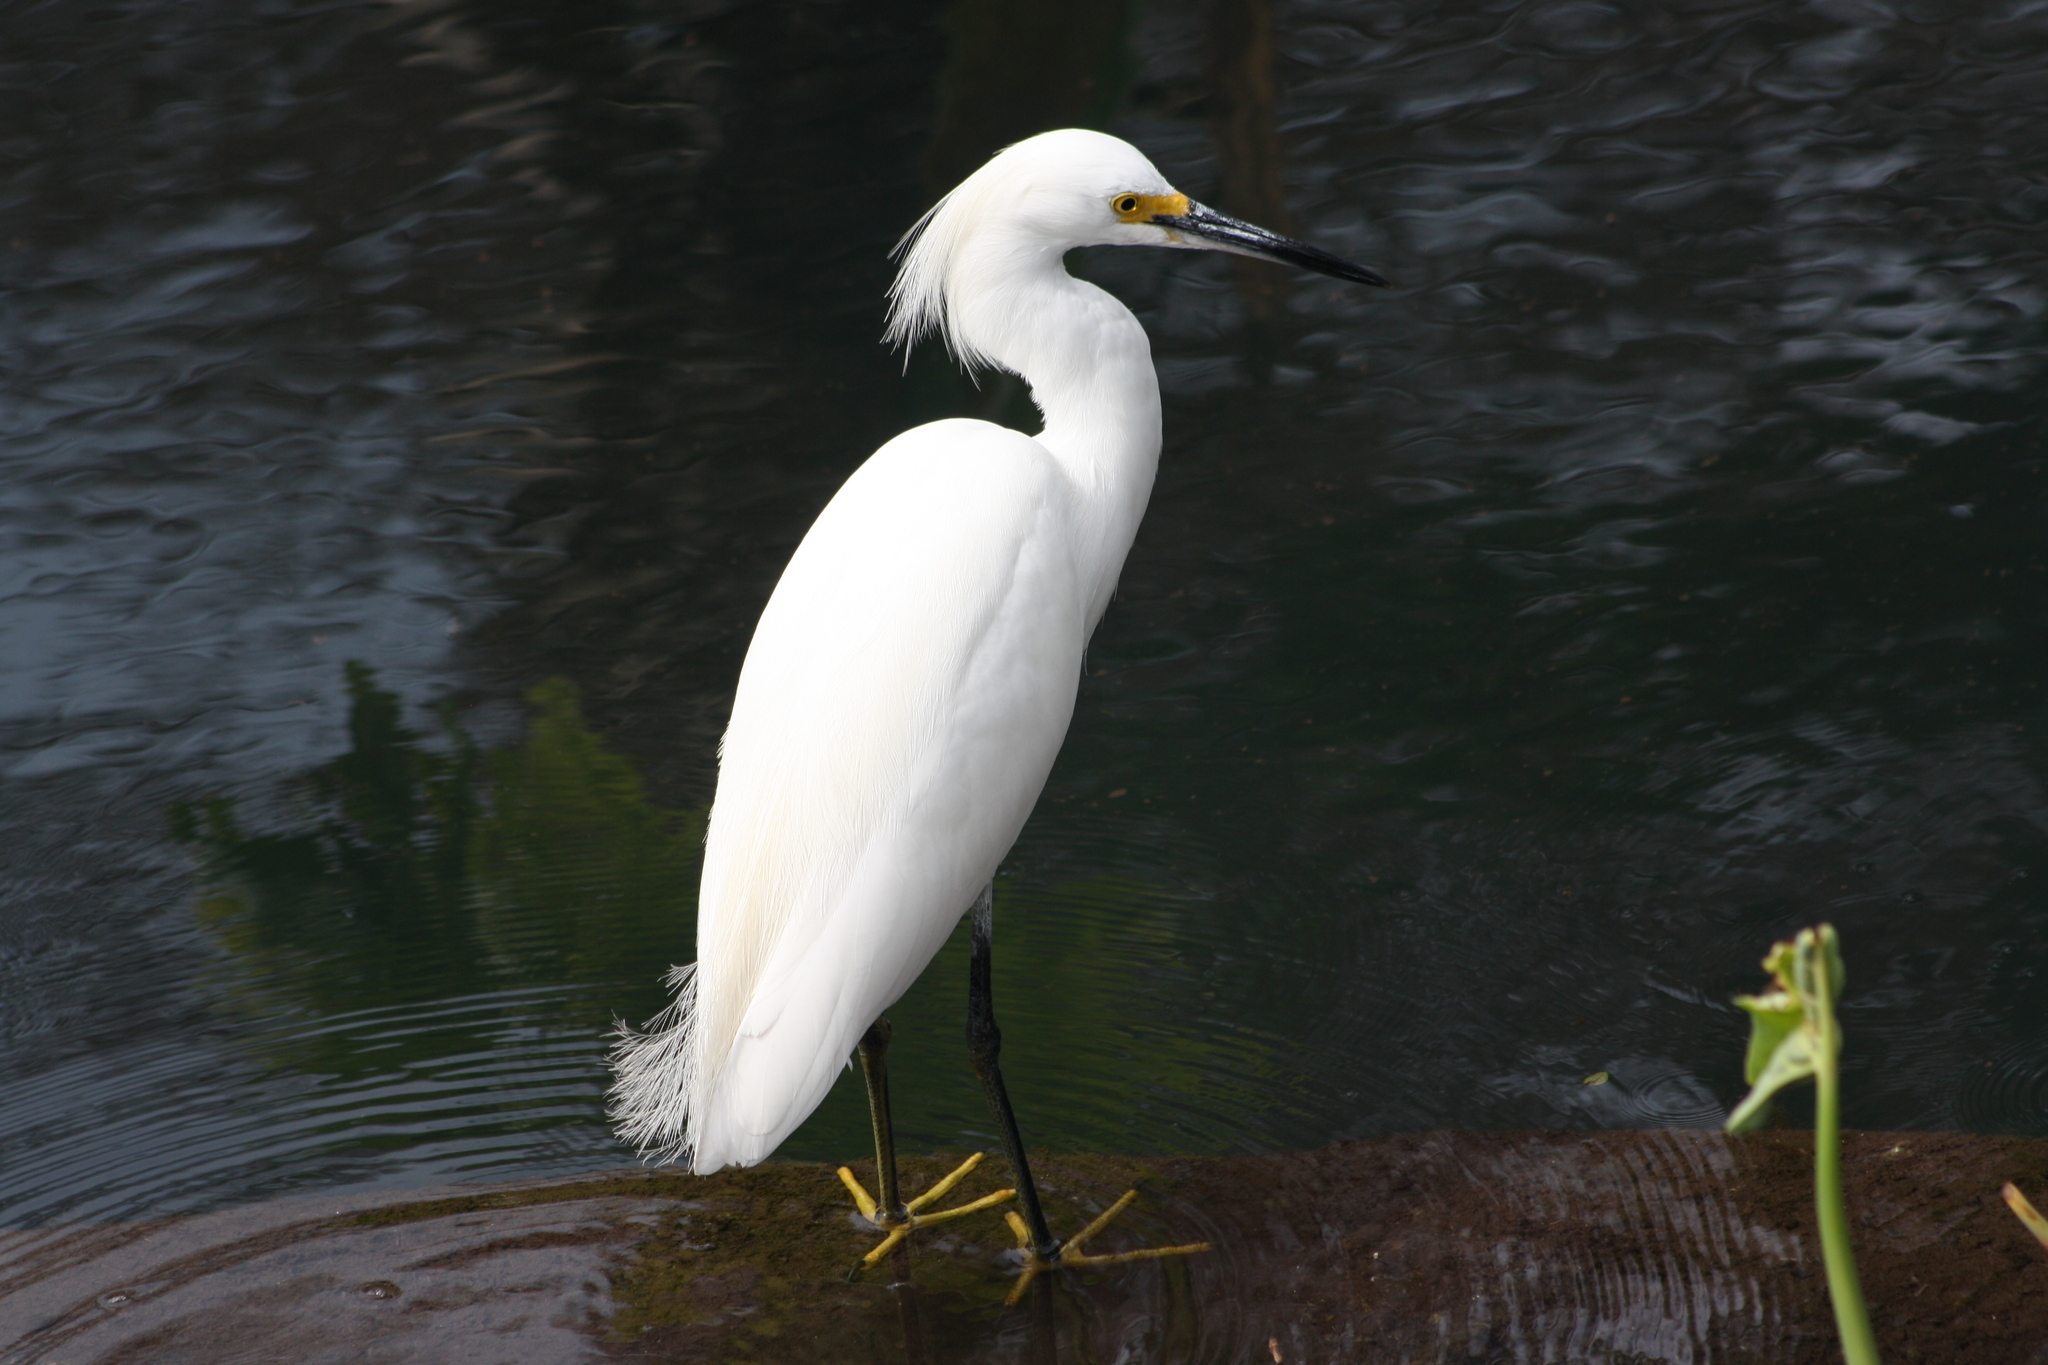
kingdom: Animalia
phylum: Chordata
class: Aves
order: Pelecaniformes
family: Ardeidae
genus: Egretta
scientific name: Egretta thula
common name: Snowy egret
